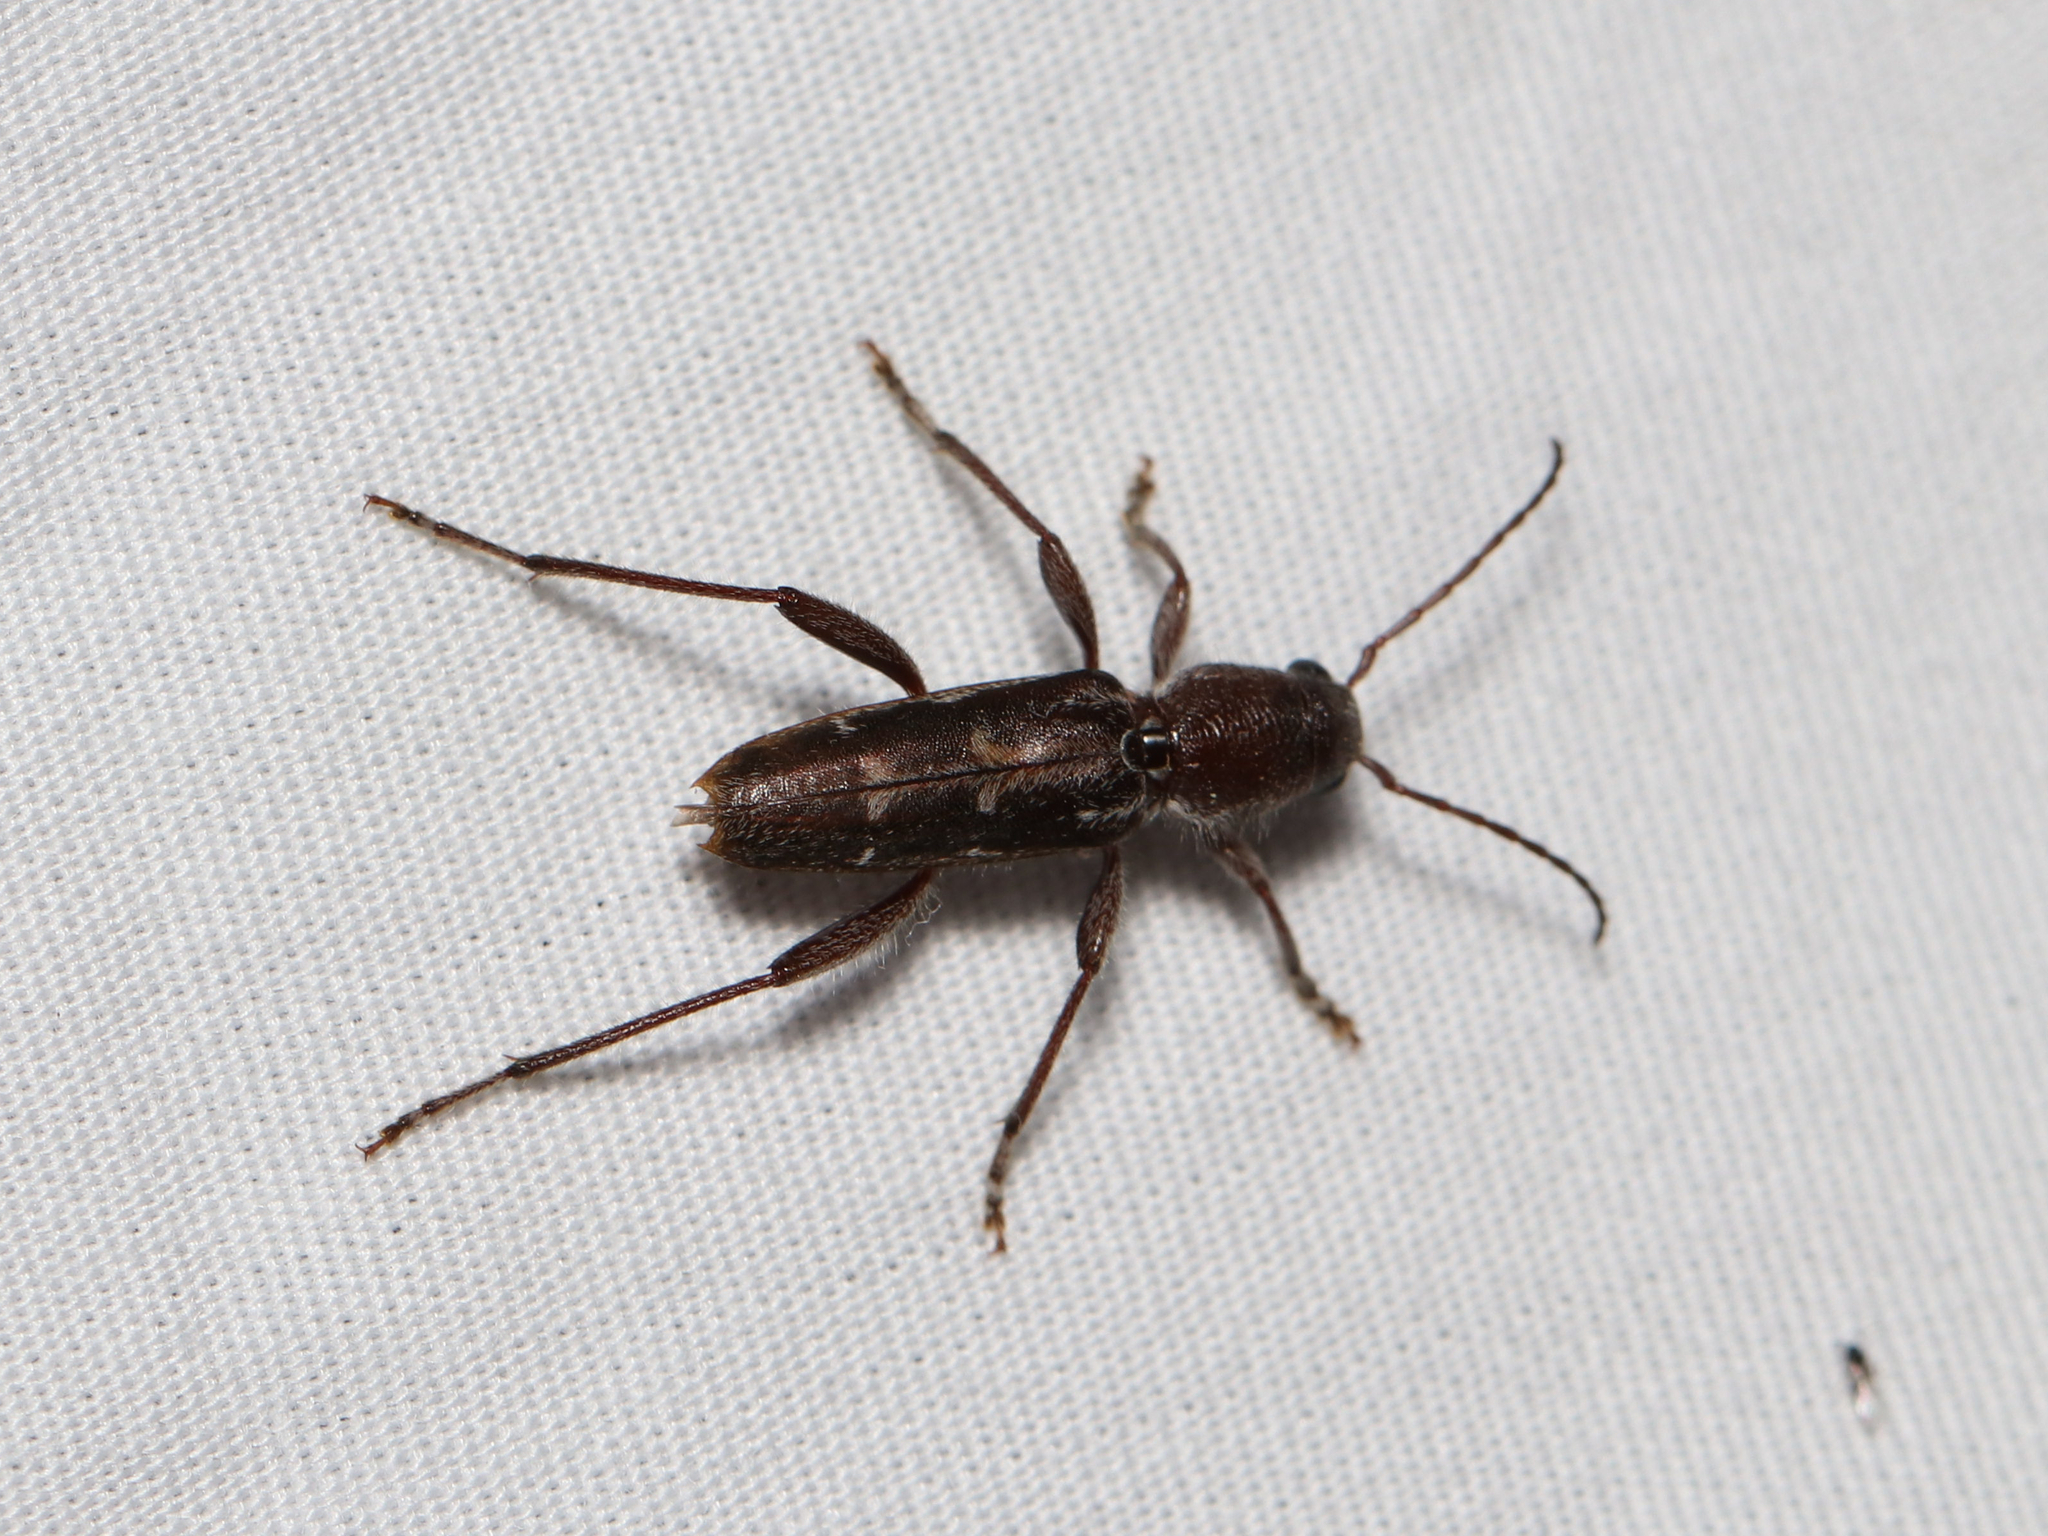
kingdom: Animalia
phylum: Arthropoda
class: Insecta
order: Coleoptera
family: Cerambycidae
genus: Xylotrechus
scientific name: Xylotrechus sagittatus
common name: Arrowhead borer
